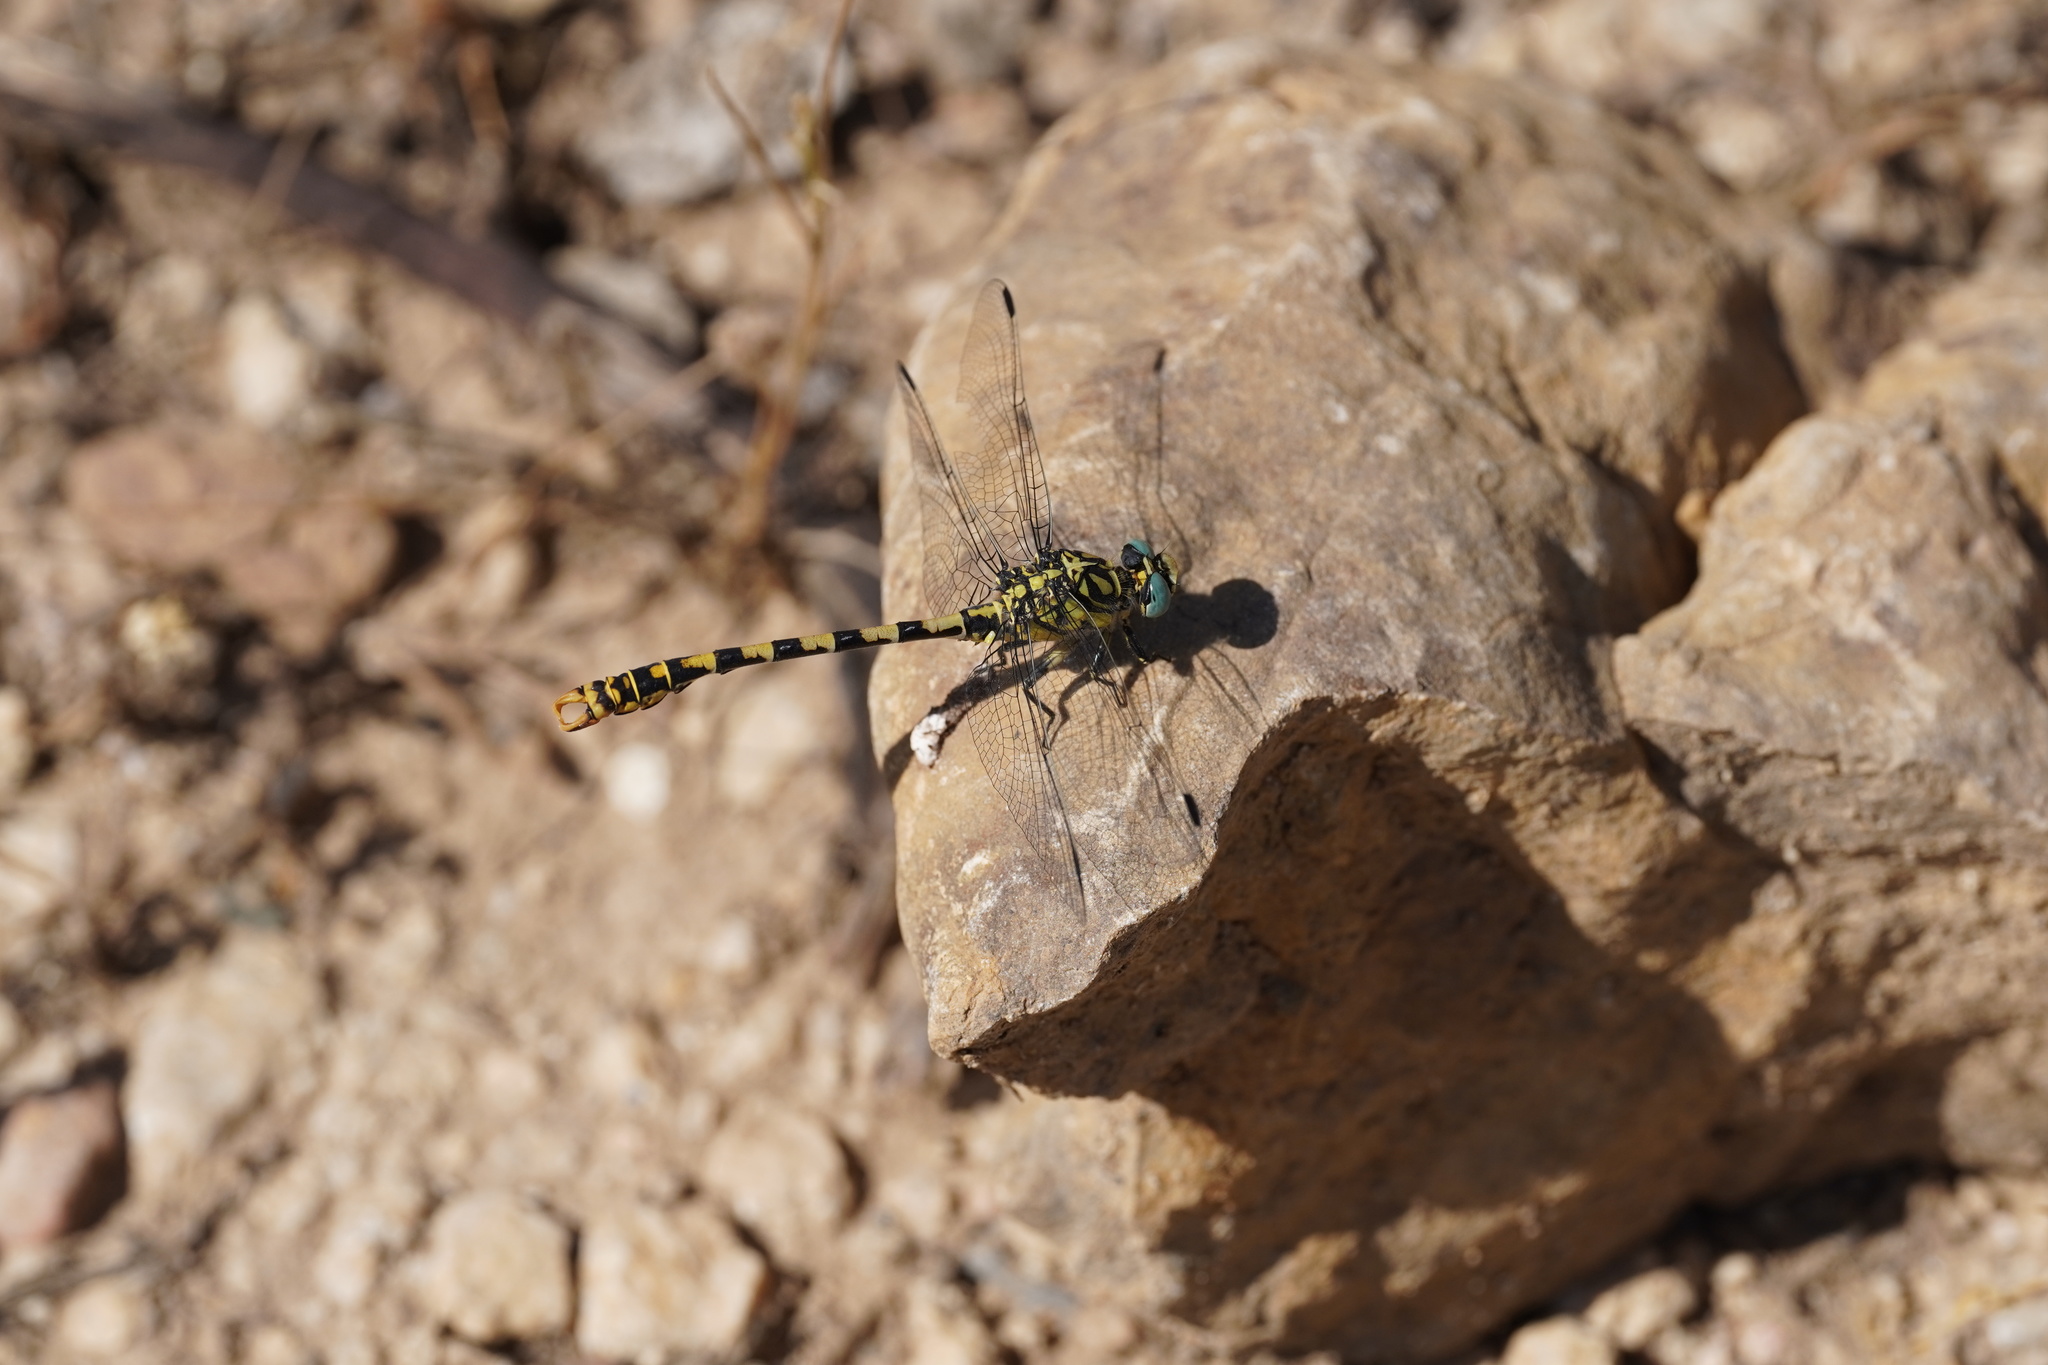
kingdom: Animalia
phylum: Arthropoda
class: Insecta
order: Odonata
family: Gomphidae
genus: Onychogomphus
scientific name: Onychogomphus forcipatus
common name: Small pincertail
